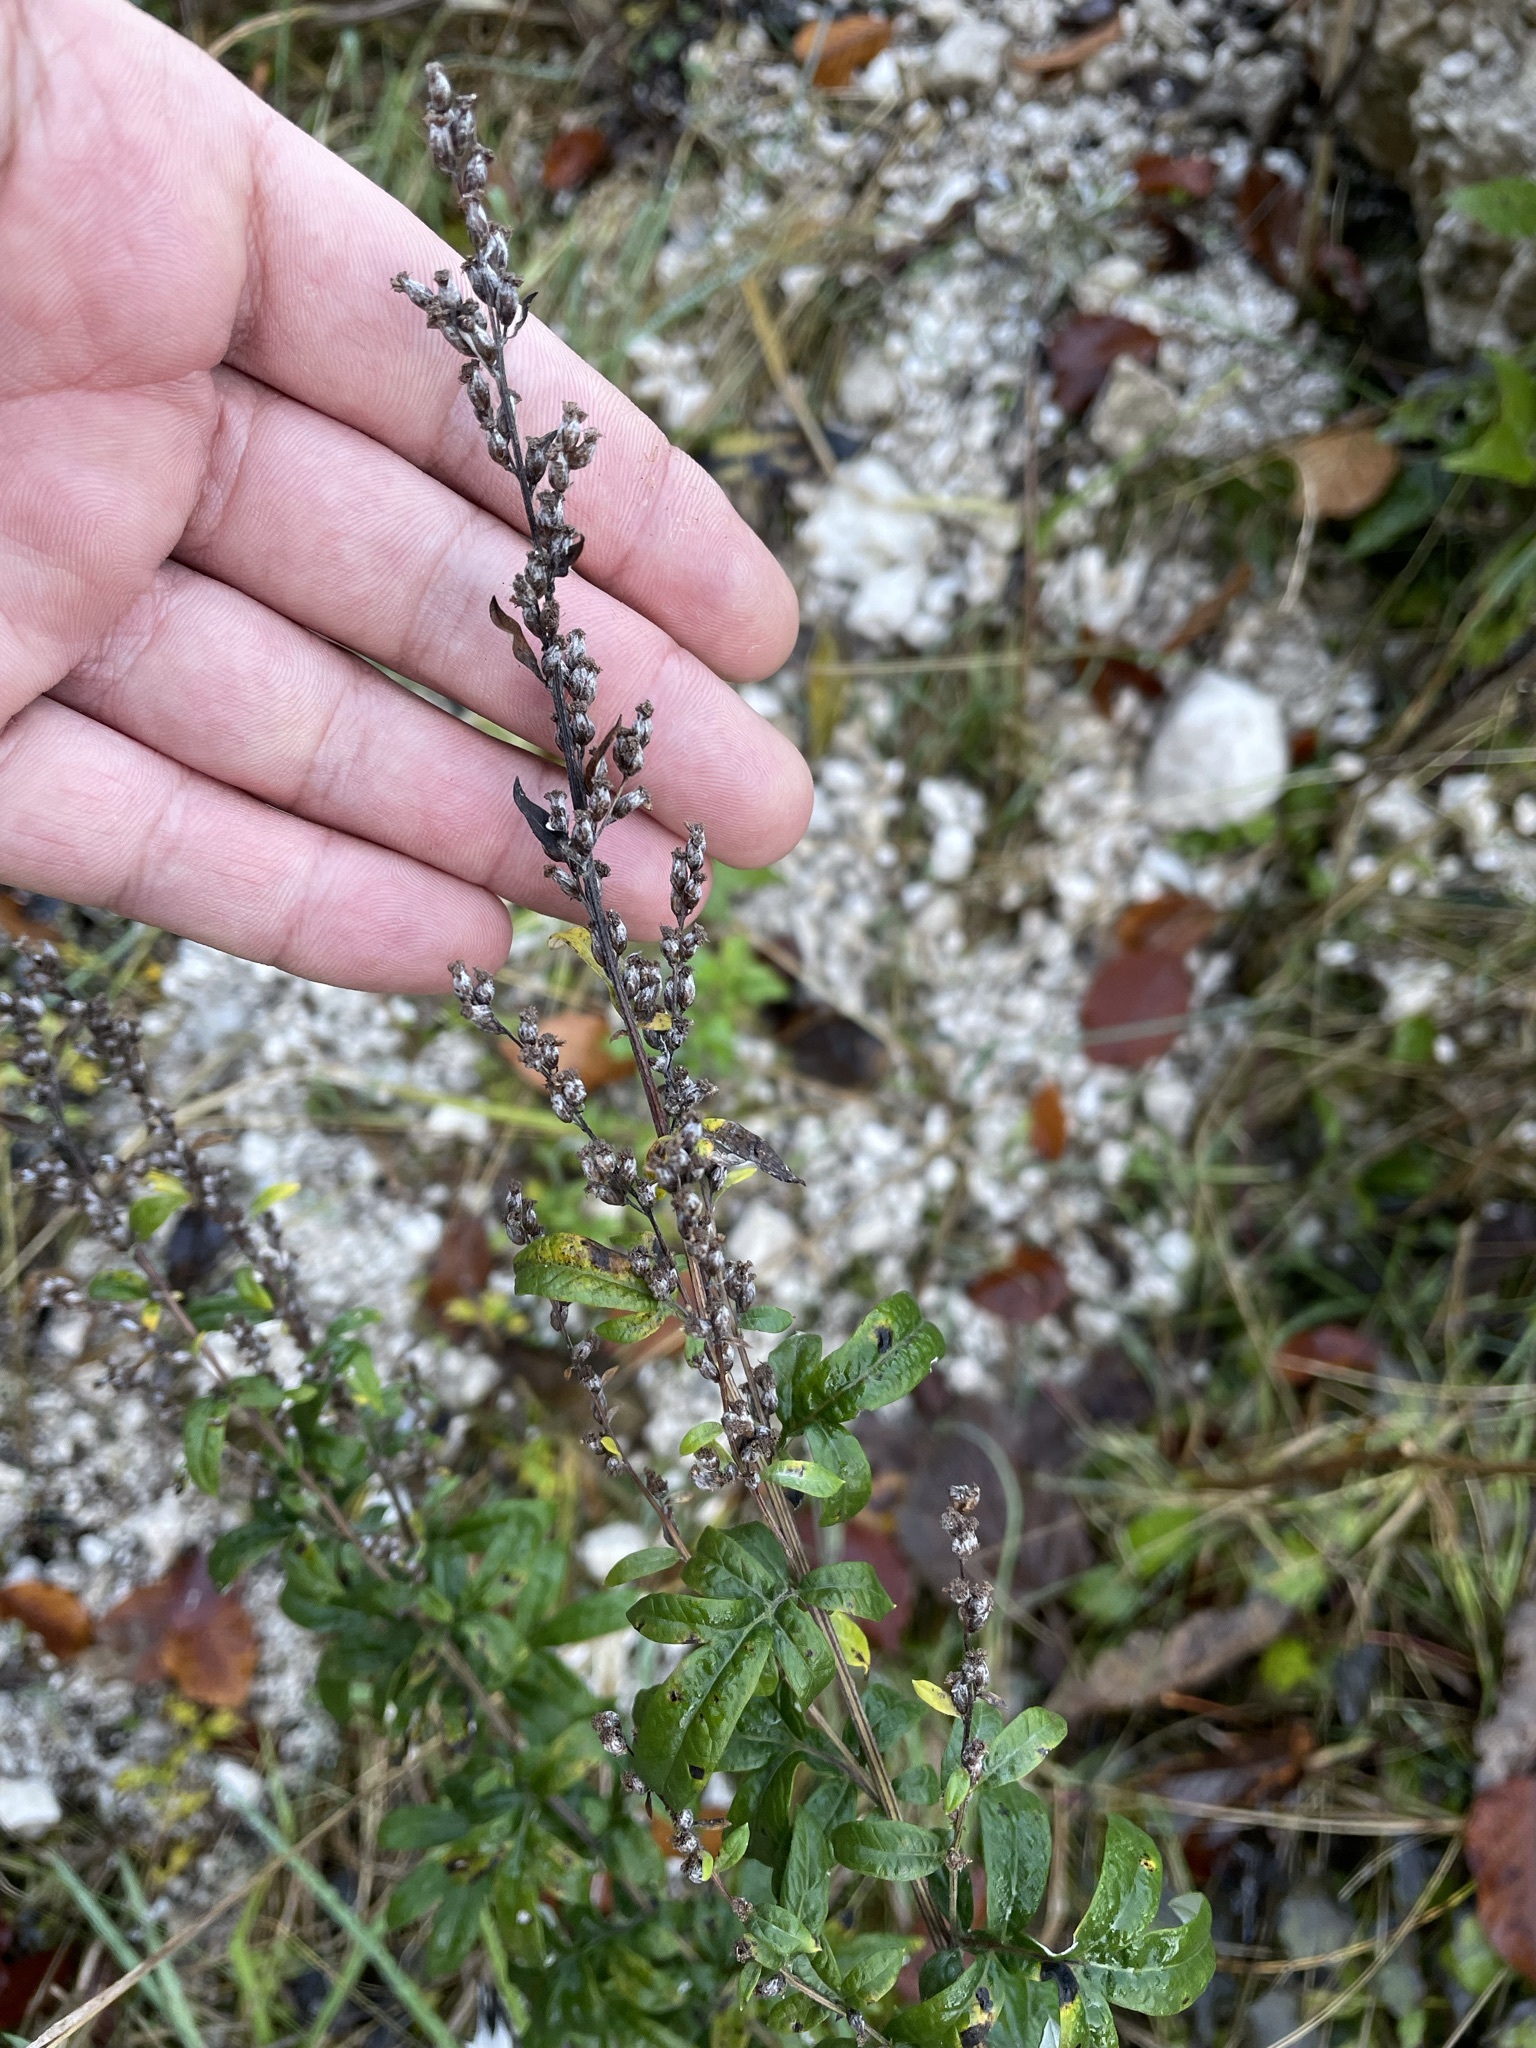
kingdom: Plantae
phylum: Tracheophyta
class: Magnoliopsida
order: Asterales
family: Asteraceae
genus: Artemisia
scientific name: Artemisia vulgaris
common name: Mugwort
